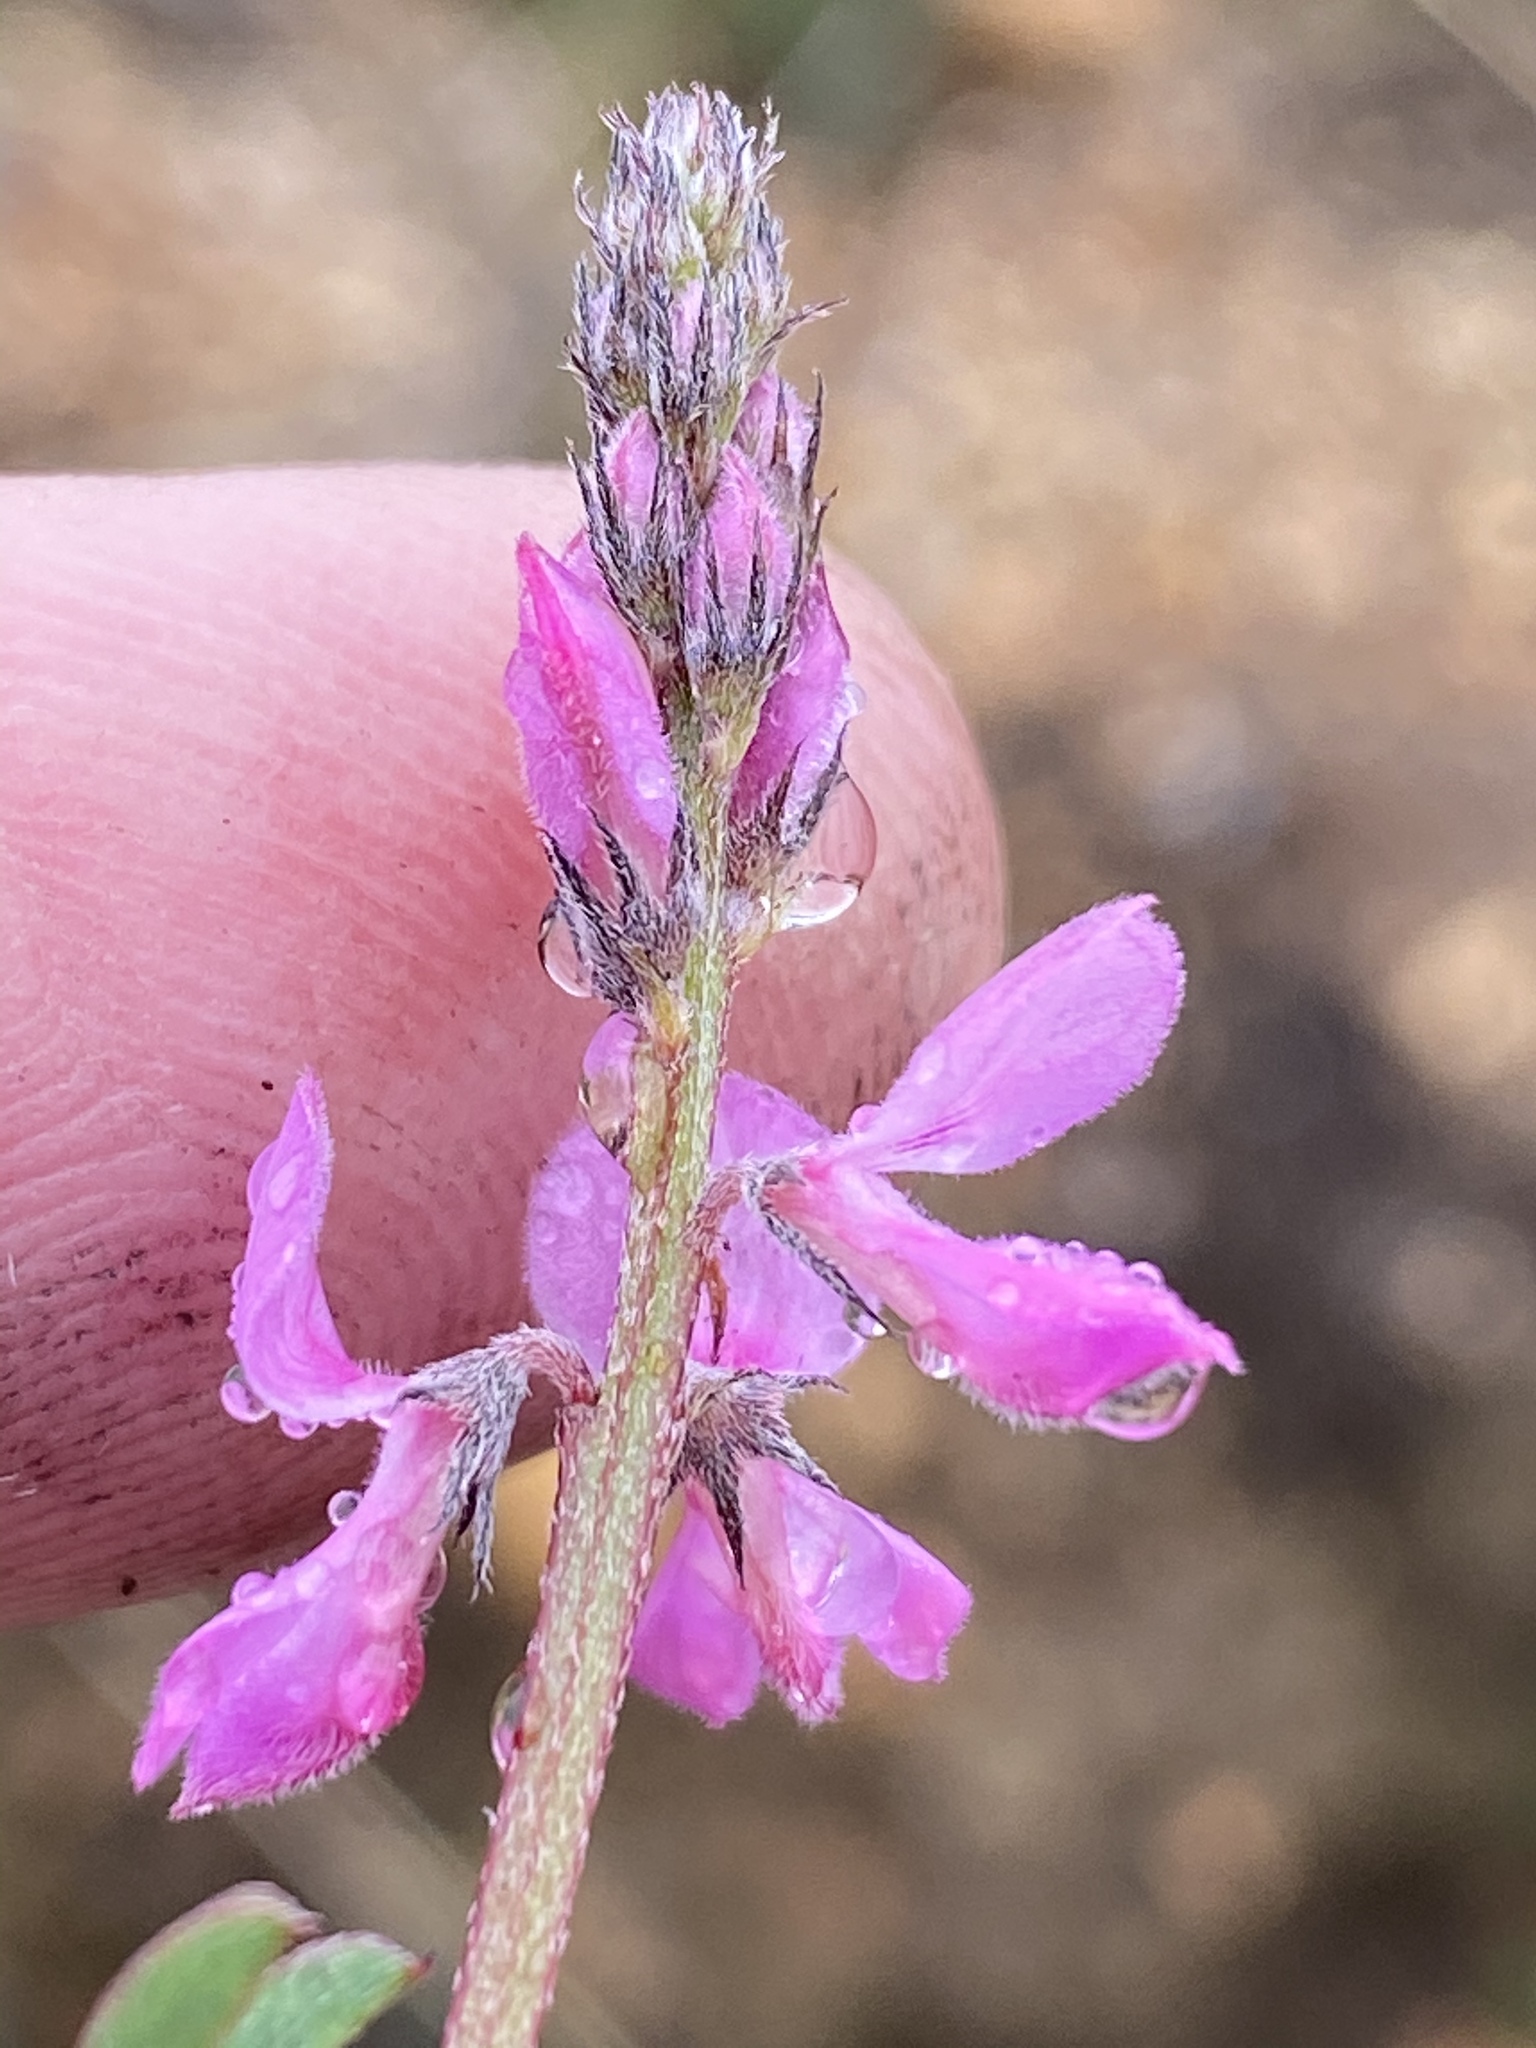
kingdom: Plantae
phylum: Tracheophyta
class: Magnoliopsida
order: Fabales
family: Fabaceae
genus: Indigofera
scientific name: Indigofera declinata
